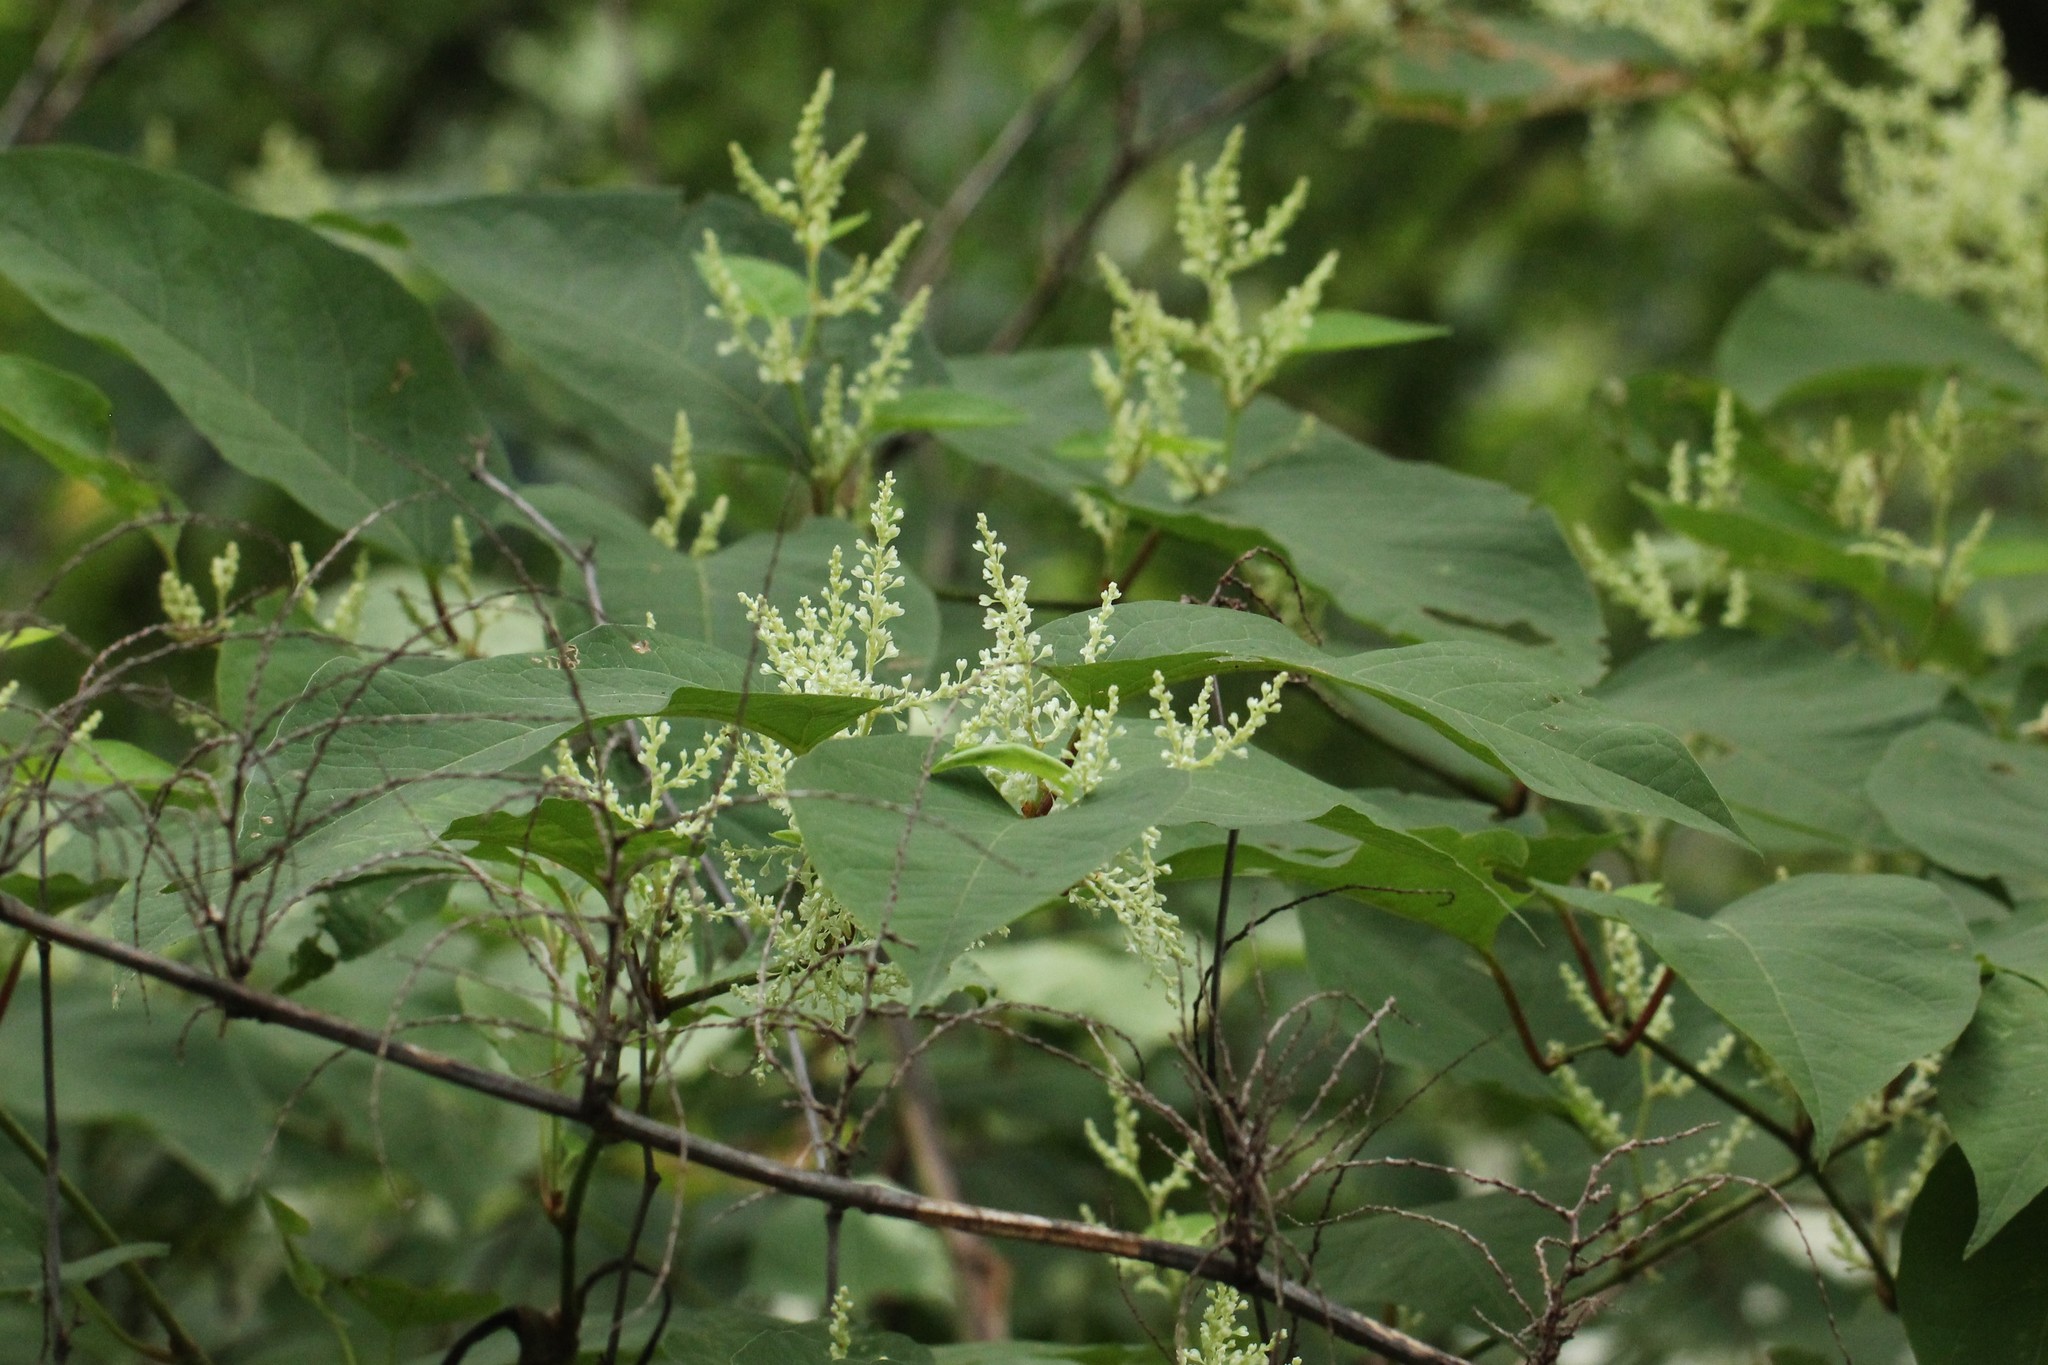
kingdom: Plantae
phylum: Tracheophyta
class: Magnoliopsida
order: Caryophyllales
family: Polygonaceae
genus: Reynoutria
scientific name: Reynoutria japonica
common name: Japanese knotweed
